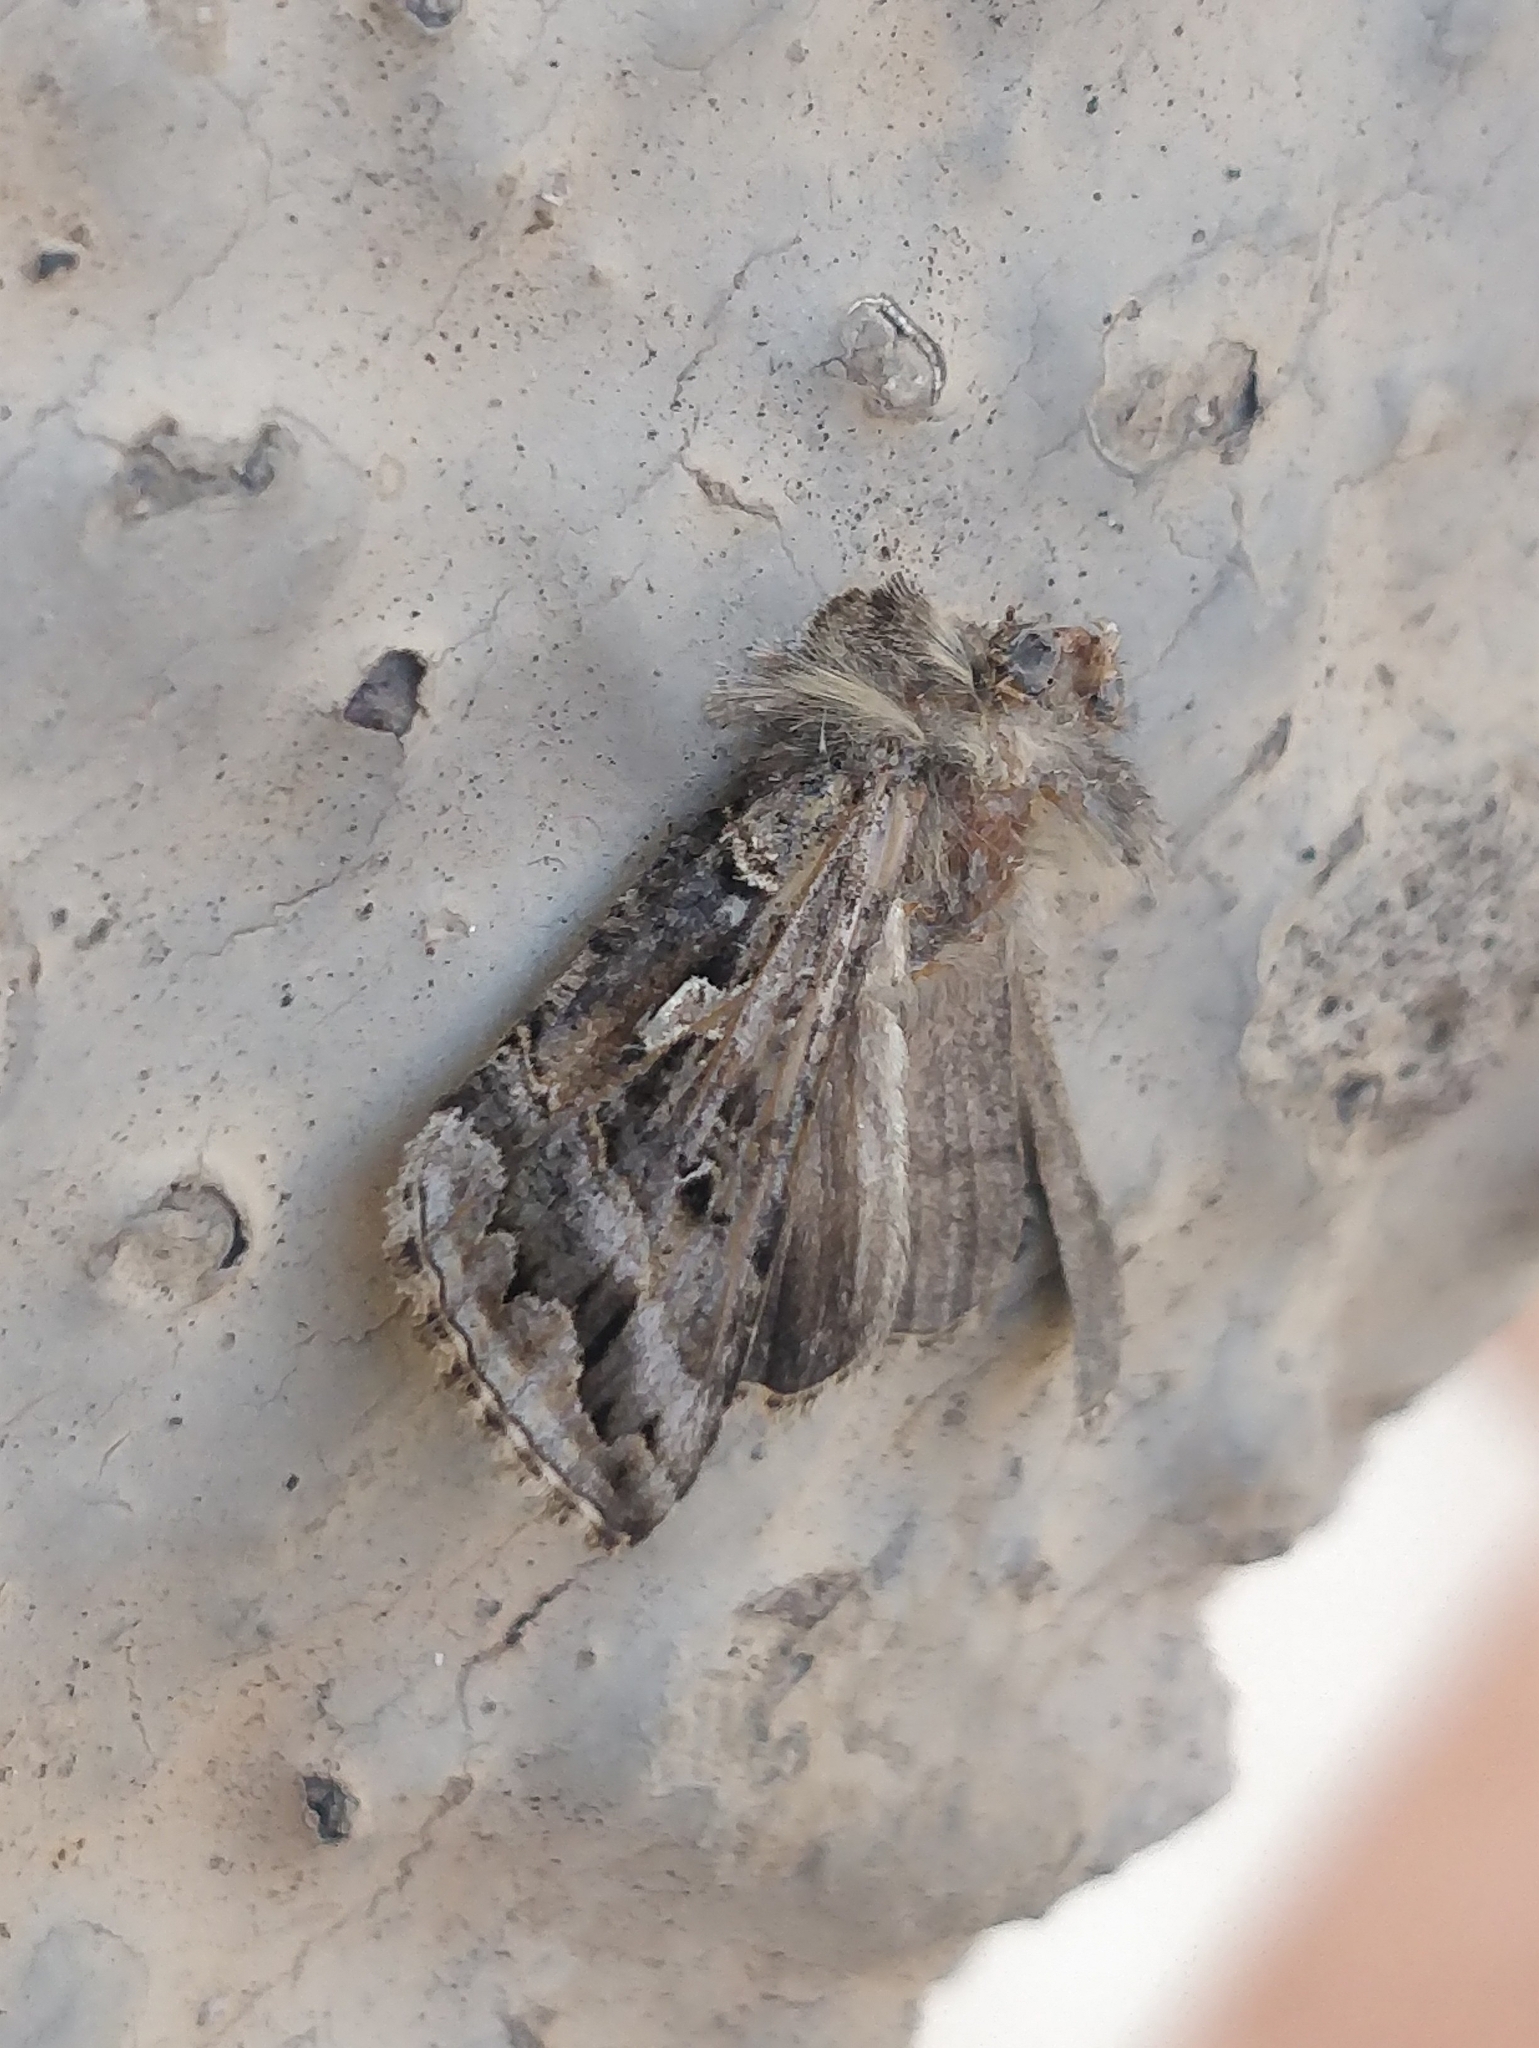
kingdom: Animalia
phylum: Arthropoda
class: Insecta
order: Lepidoptera
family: Noctuidae
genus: Cornutiplusia
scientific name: Cornutiplusia circumflexa
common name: Yorkshire y
